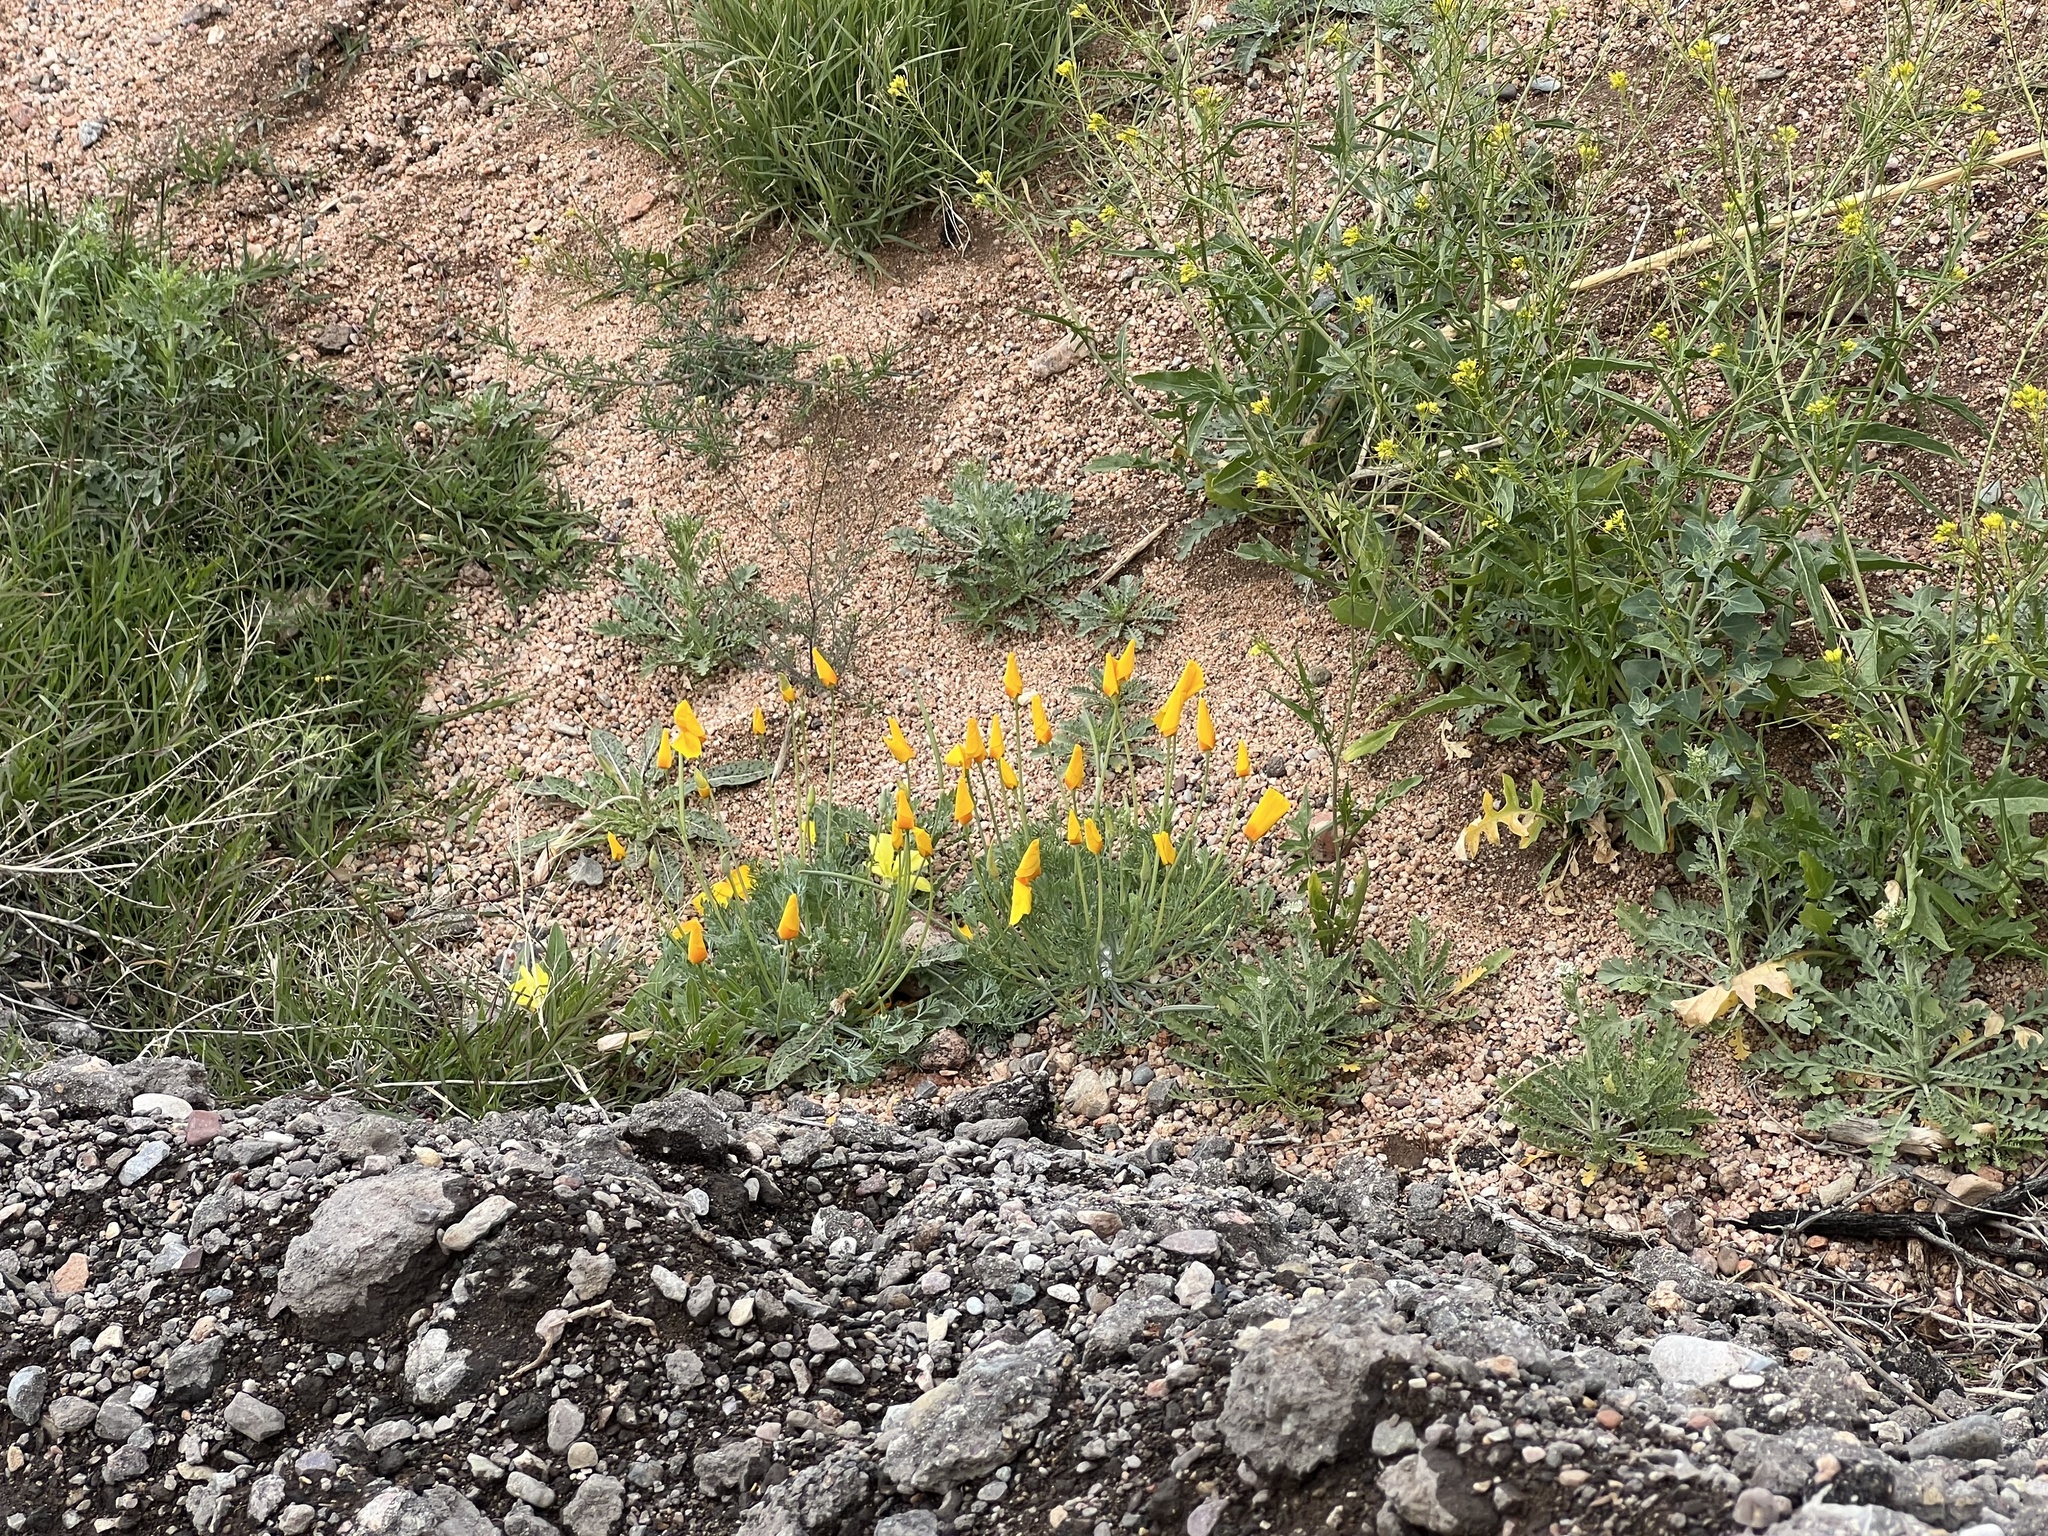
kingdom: Plantae
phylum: Tracheophyta
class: Magnoliopsida
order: Ranunculales
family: Papaveraceae
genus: Eschscholzia
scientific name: Eschscholzia californica
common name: California poppy
